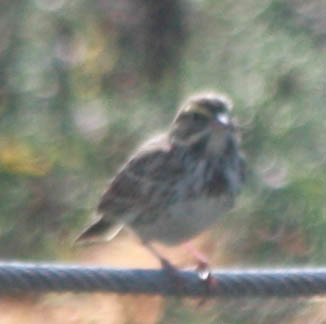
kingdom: Animalia
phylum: Chordata
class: Aves
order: Passeriformes
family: Passerellidae
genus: Passerculus
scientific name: Passerculus sandwichensis
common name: Savannah sparrow
